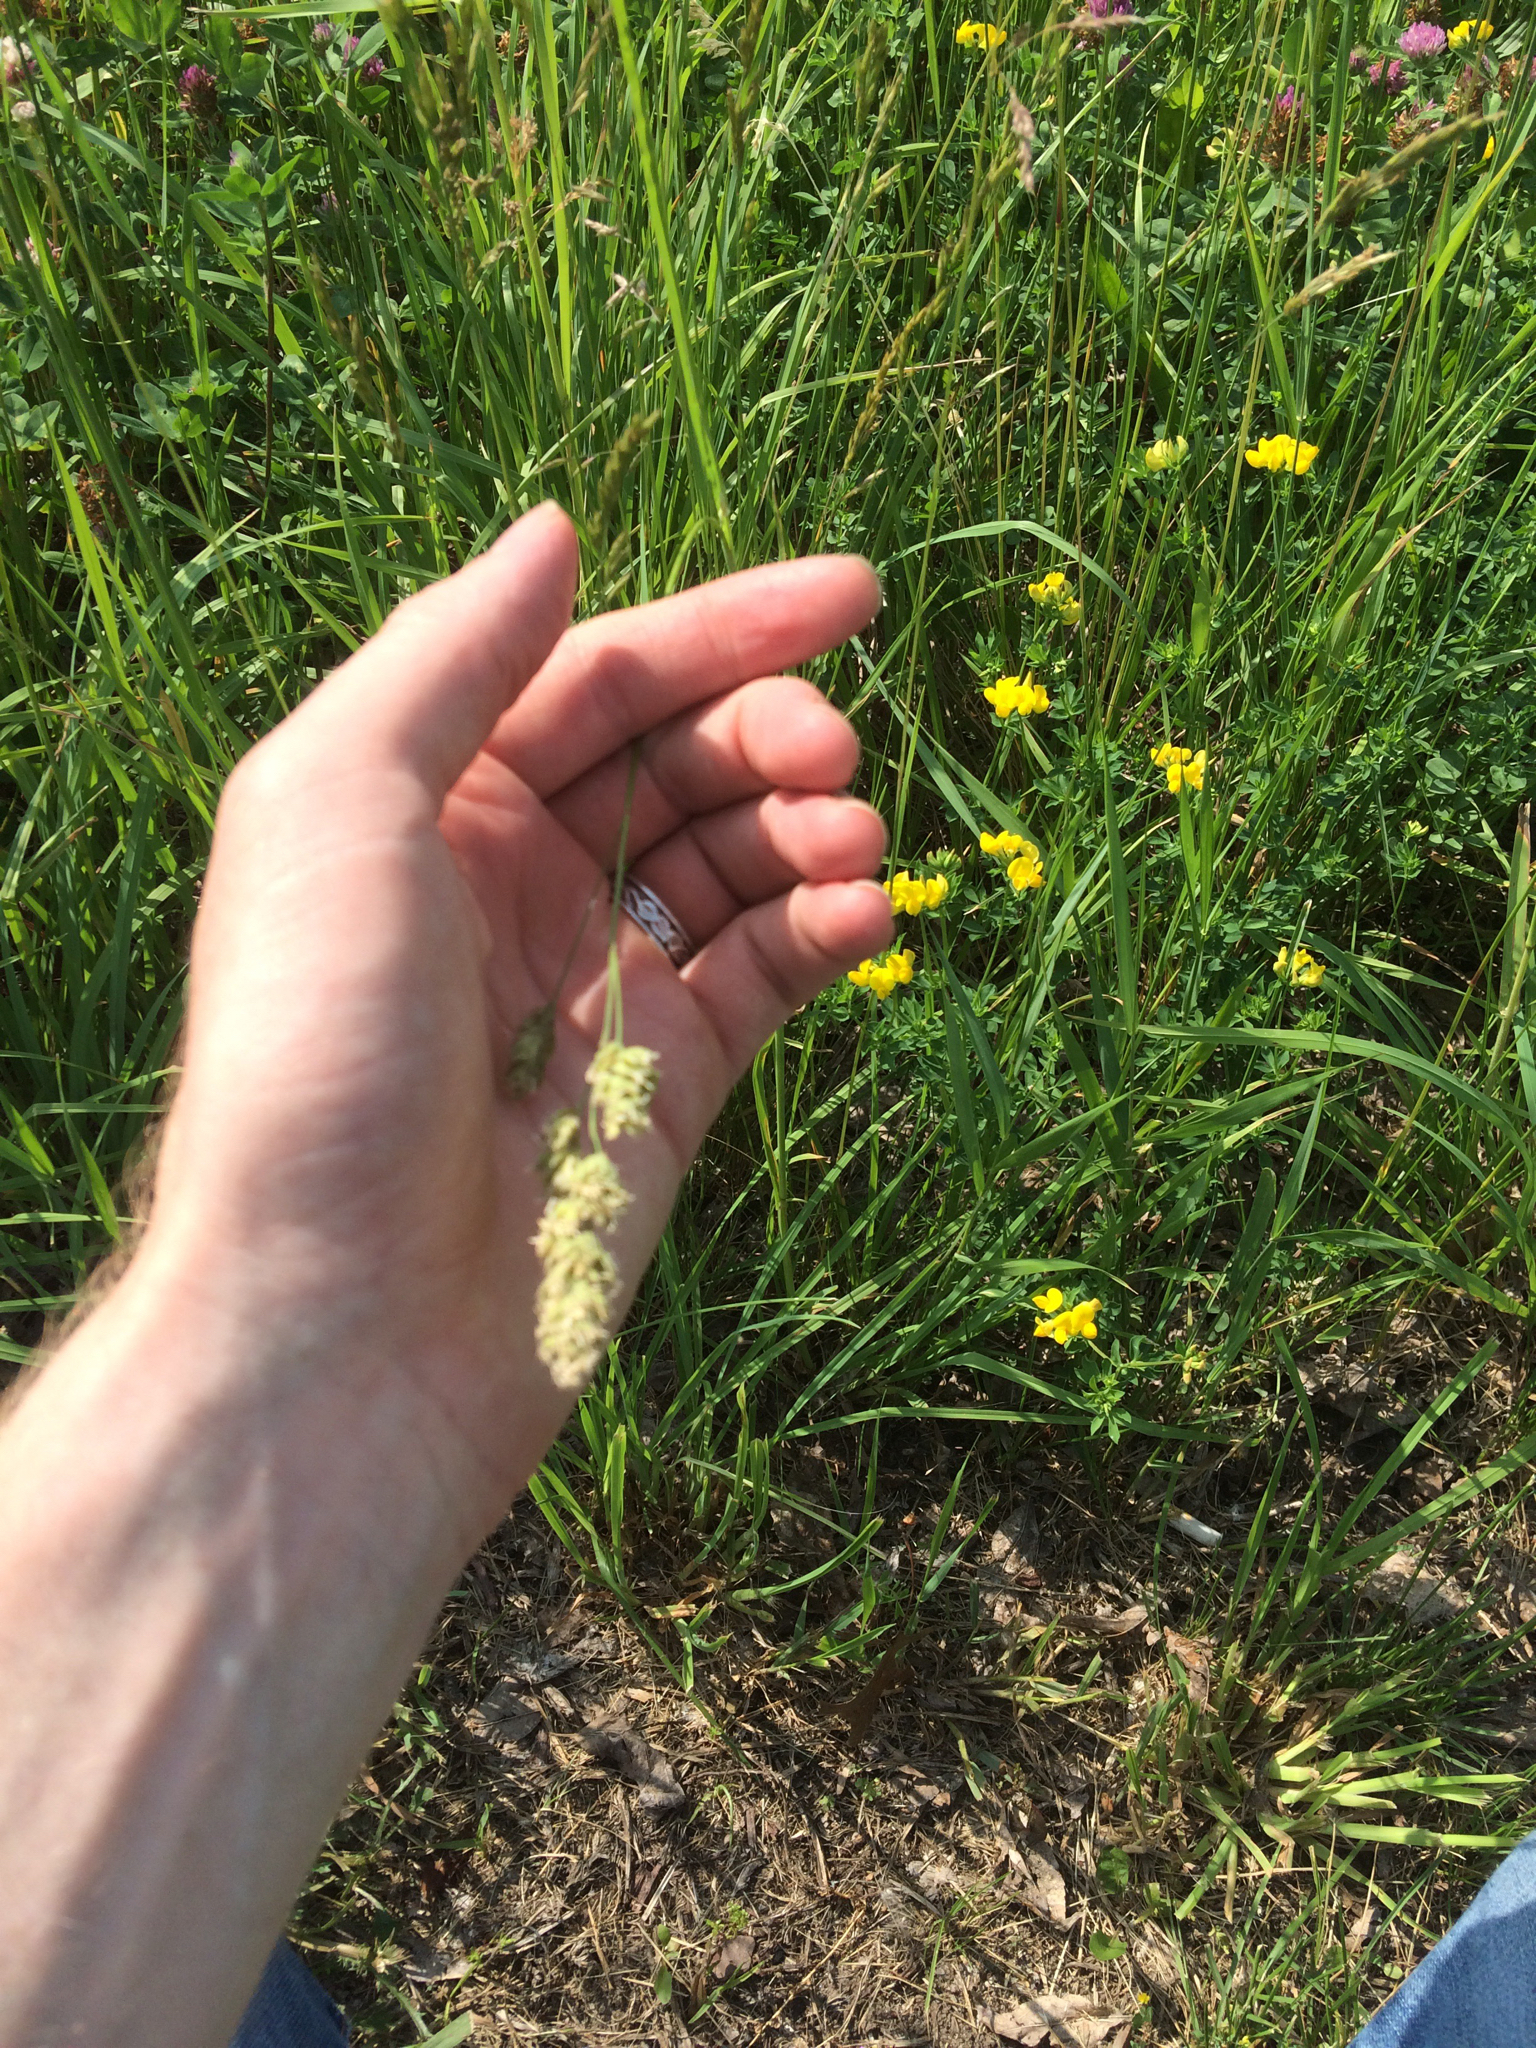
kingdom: Plantae
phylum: Tracheophyta
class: Liliopsida
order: Poales
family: Poaceae
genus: Dactylis
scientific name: Dactylis glomerata
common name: Orchardgrass
